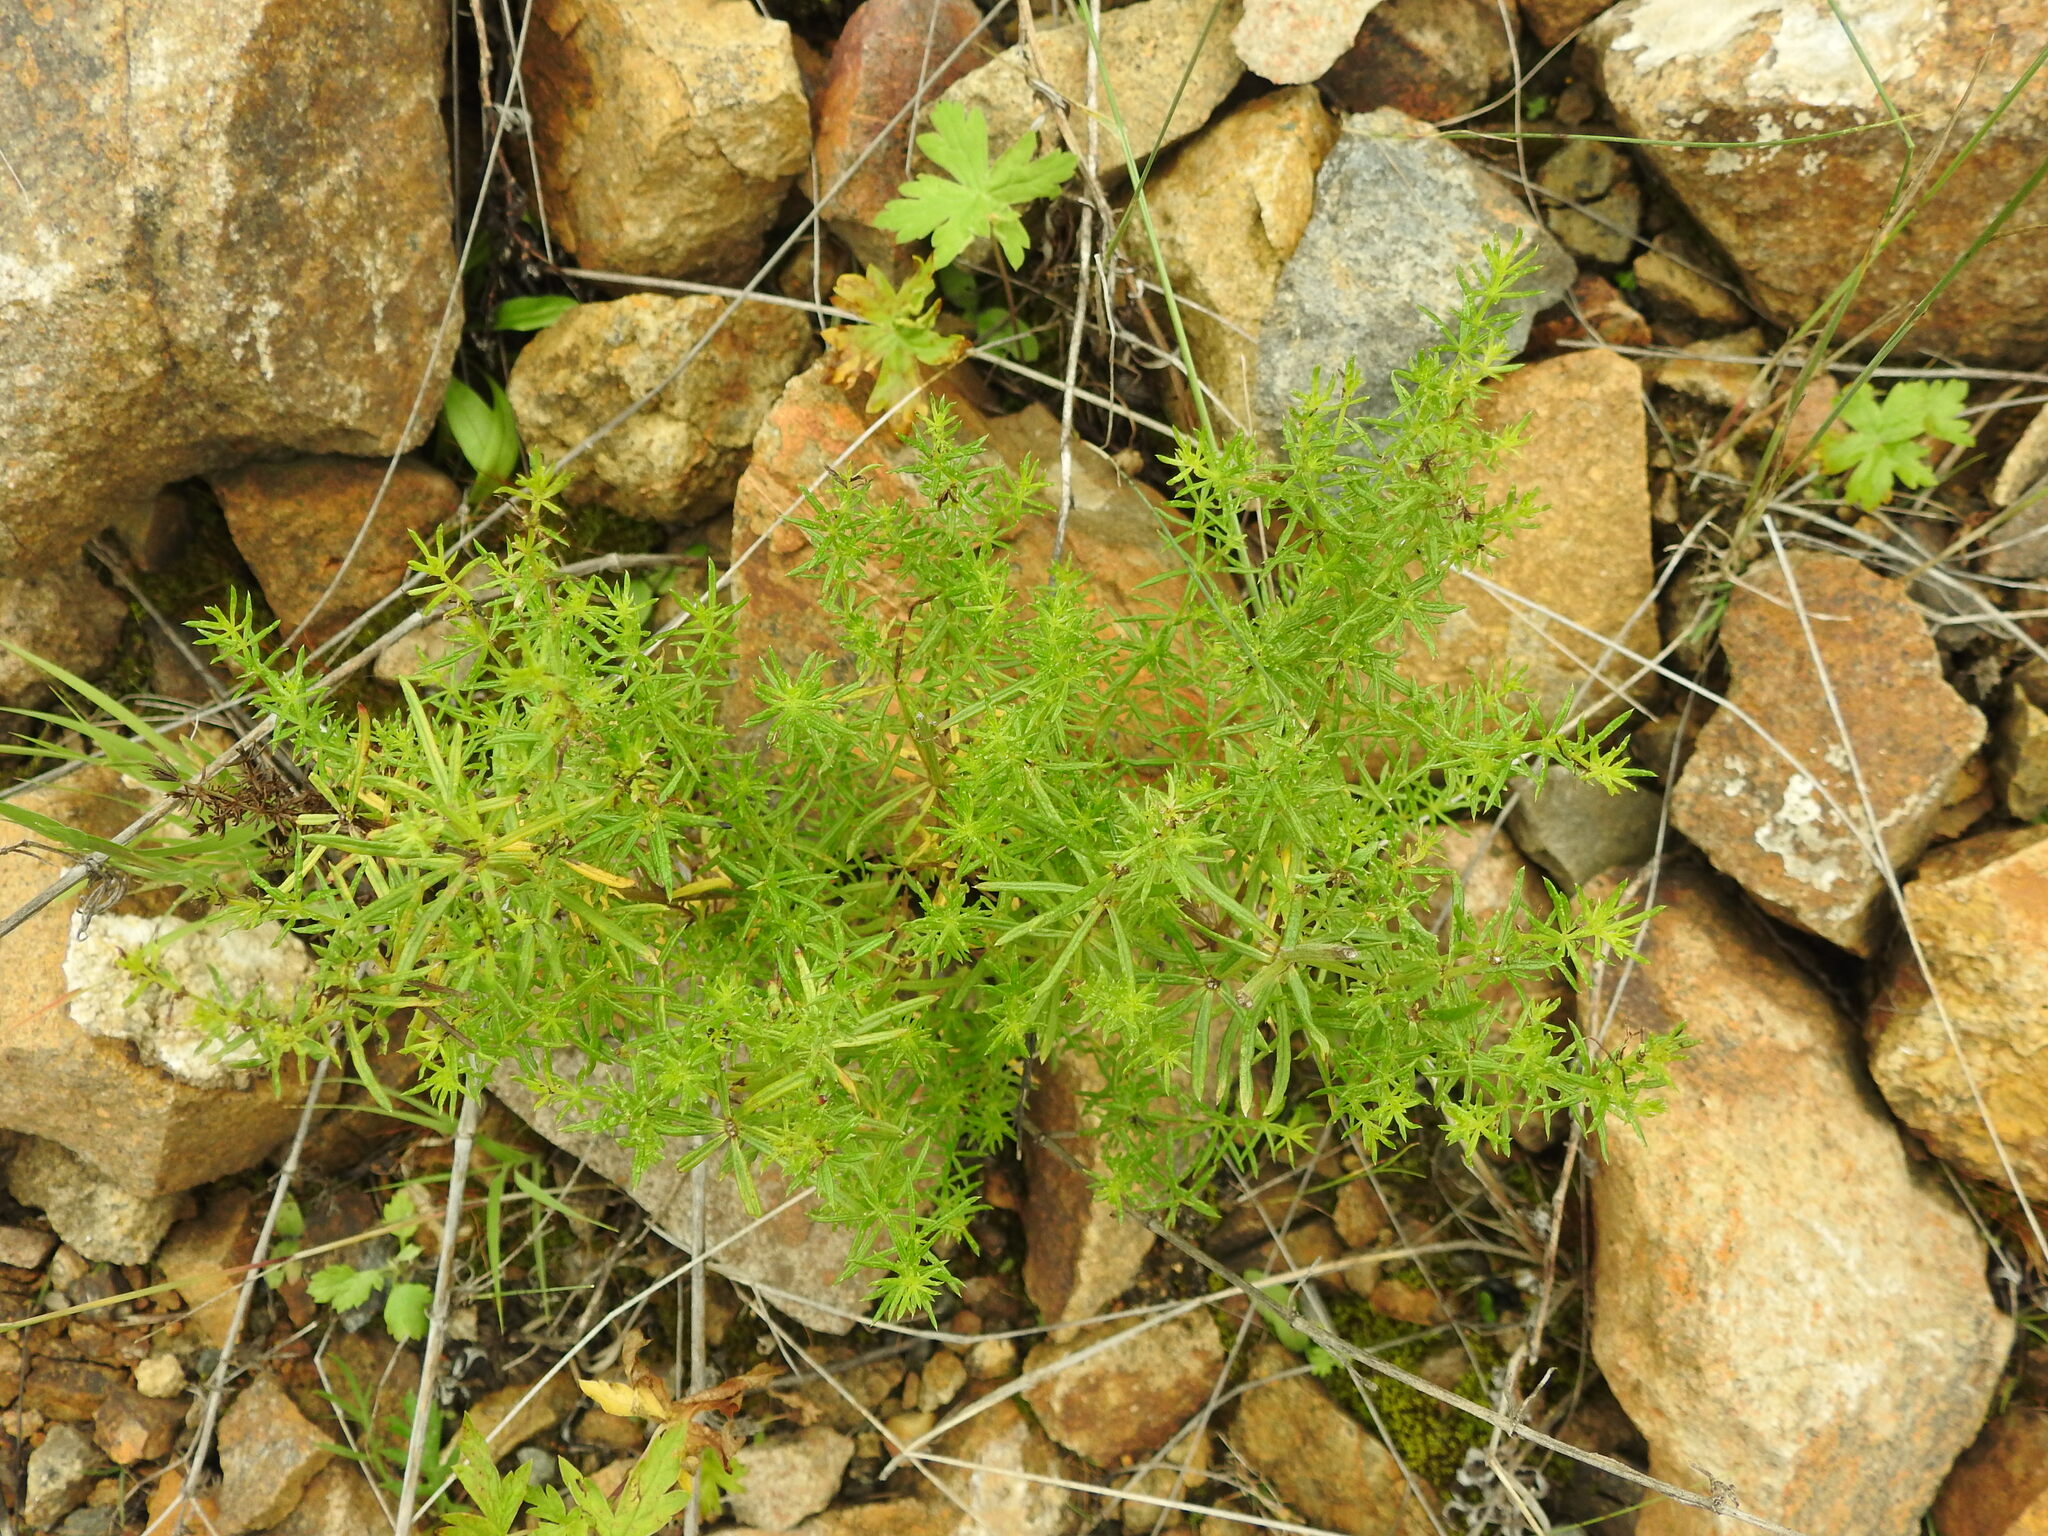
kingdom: Plantae
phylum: Tracheophyta
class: Magnoliopsida
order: Gentianales
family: Rubiaceae
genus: Galium
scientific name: Galium verum
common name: Lady's bedstraw
